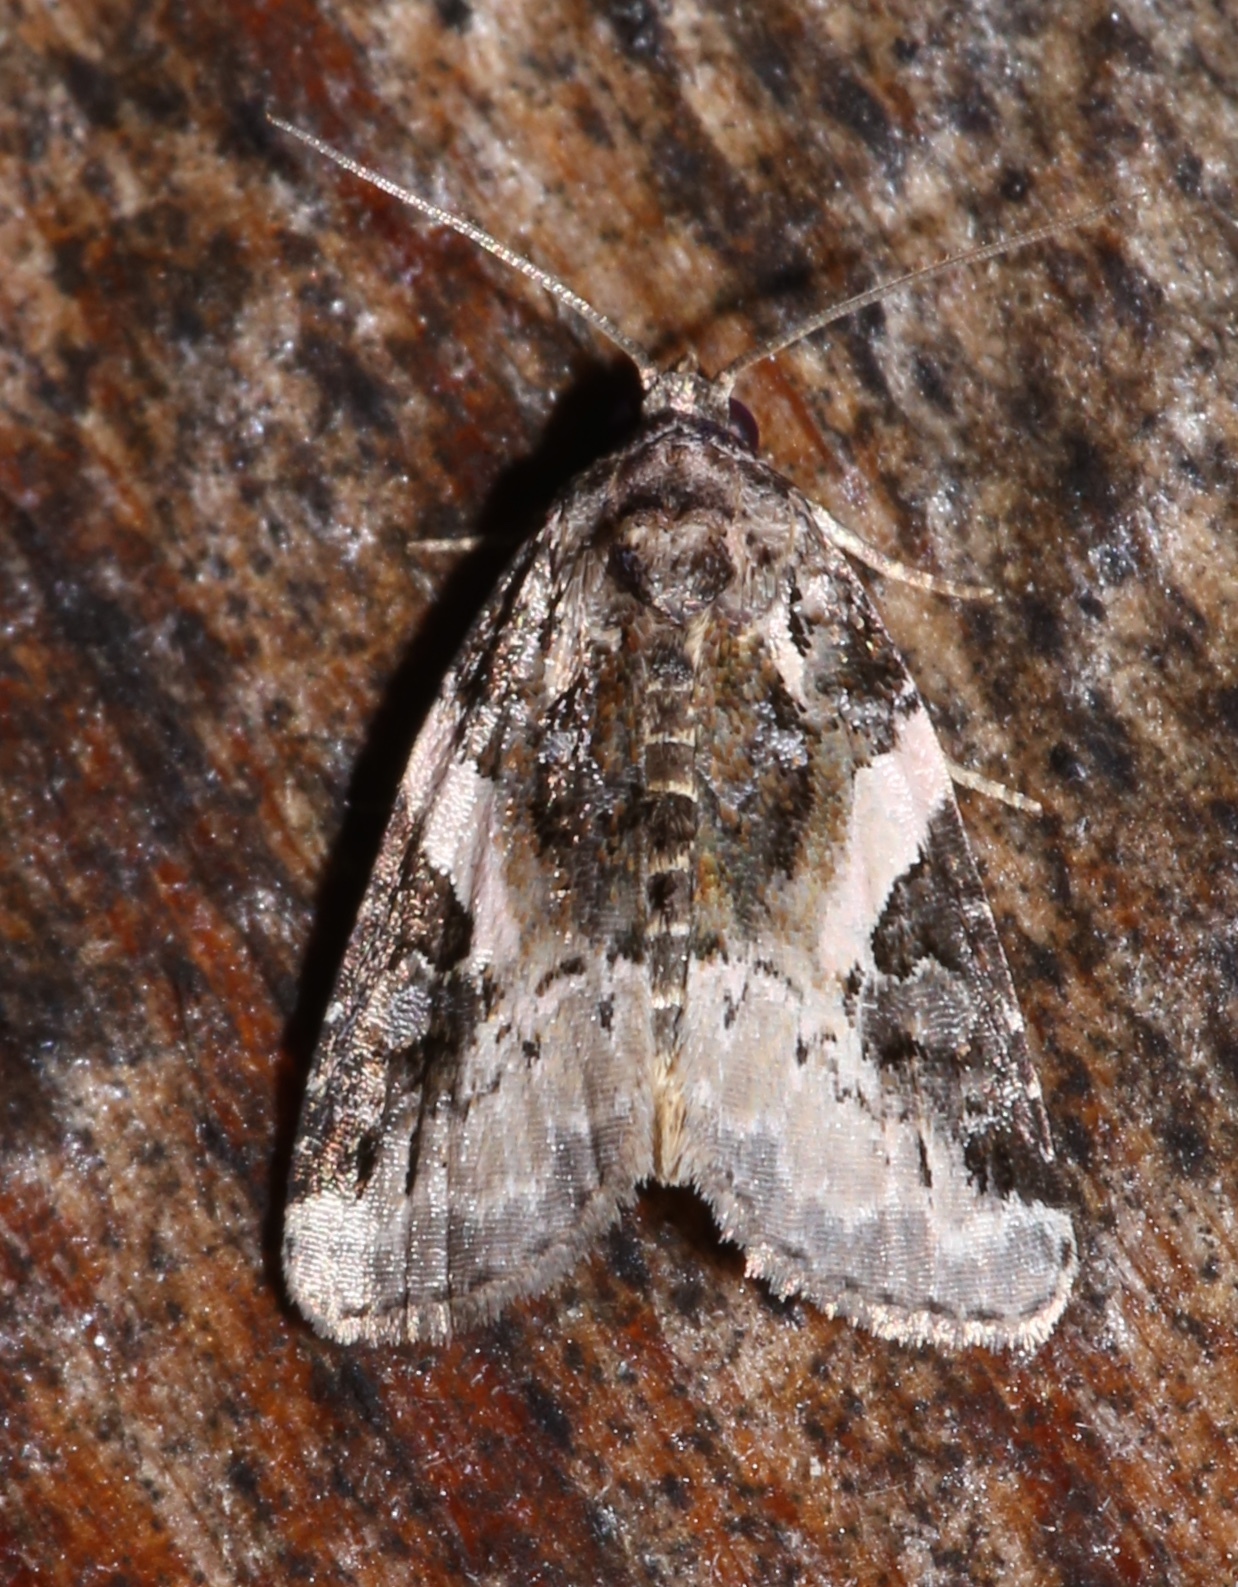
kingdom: Animalia
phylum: Arthropoda
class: Insecta
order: Lepidoptera
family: Noctuidae
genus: Pseudeustrotia
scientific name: Pseudeustrotia carneola
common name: Pink-barred lithacodia moth
